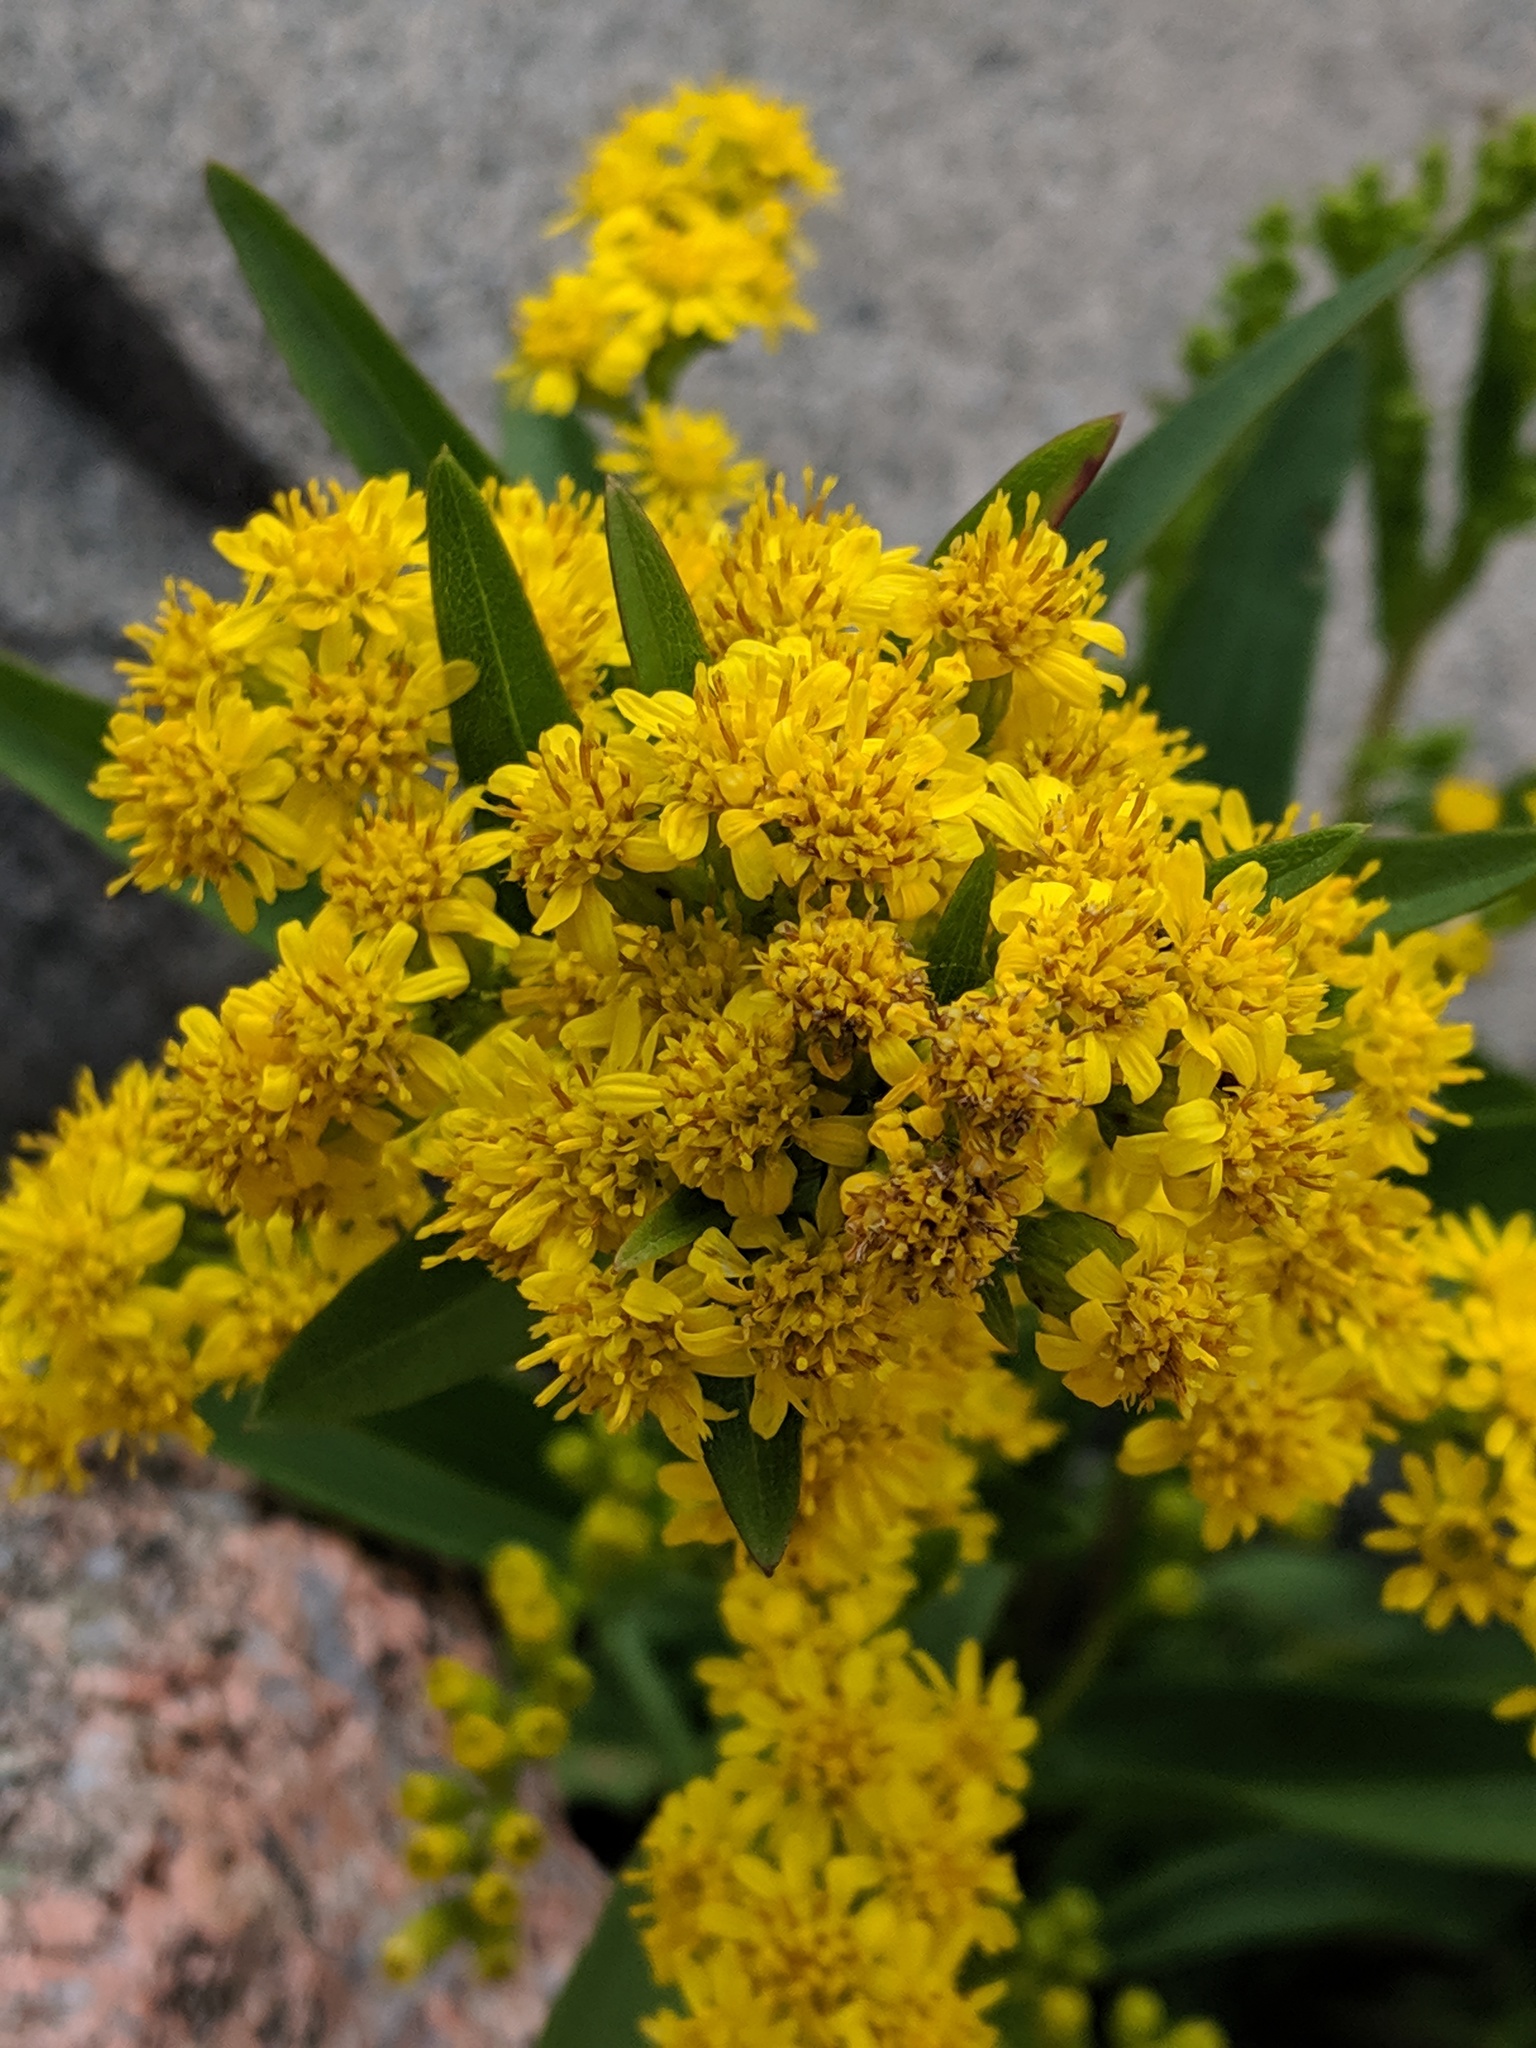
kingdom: Plantae
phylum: Tracheophyta
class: Magnoliopsida
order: Asterales
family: Asteraceae
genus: Solidago
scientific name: Solidago sempervirens
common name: Salt-marsh goldenrod
